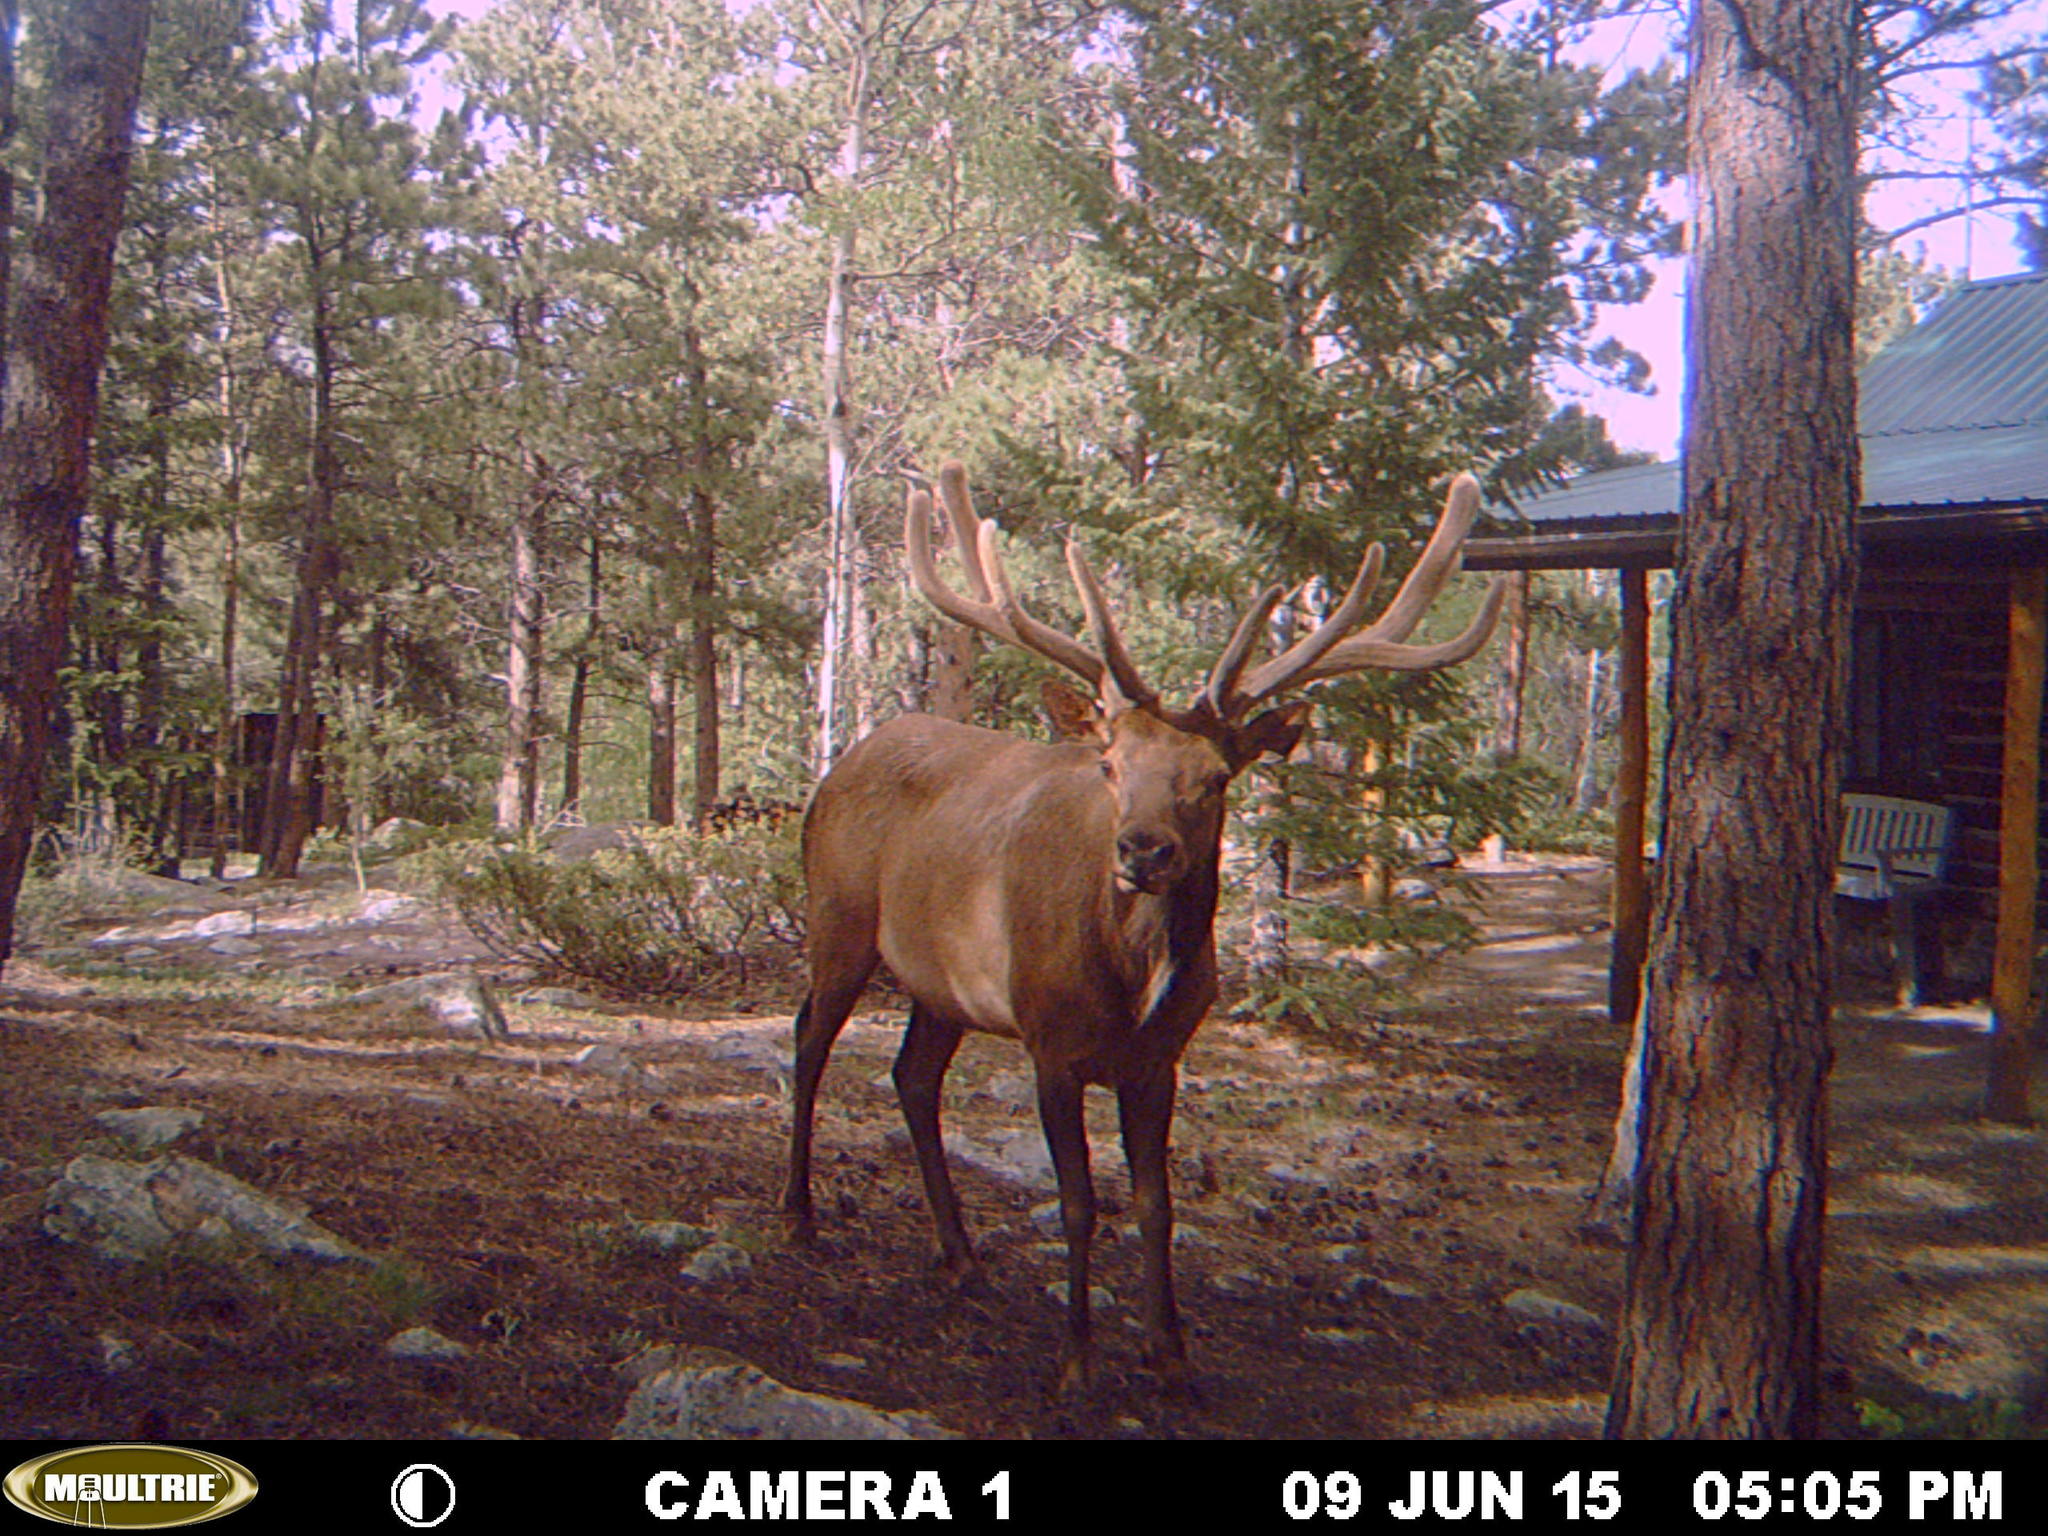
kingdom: Animalia
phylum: Chordata
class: Mammalia
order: Artiodactyla
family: Cervidae
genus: Cervus
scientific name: Cervus elaphus
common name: Red deer
